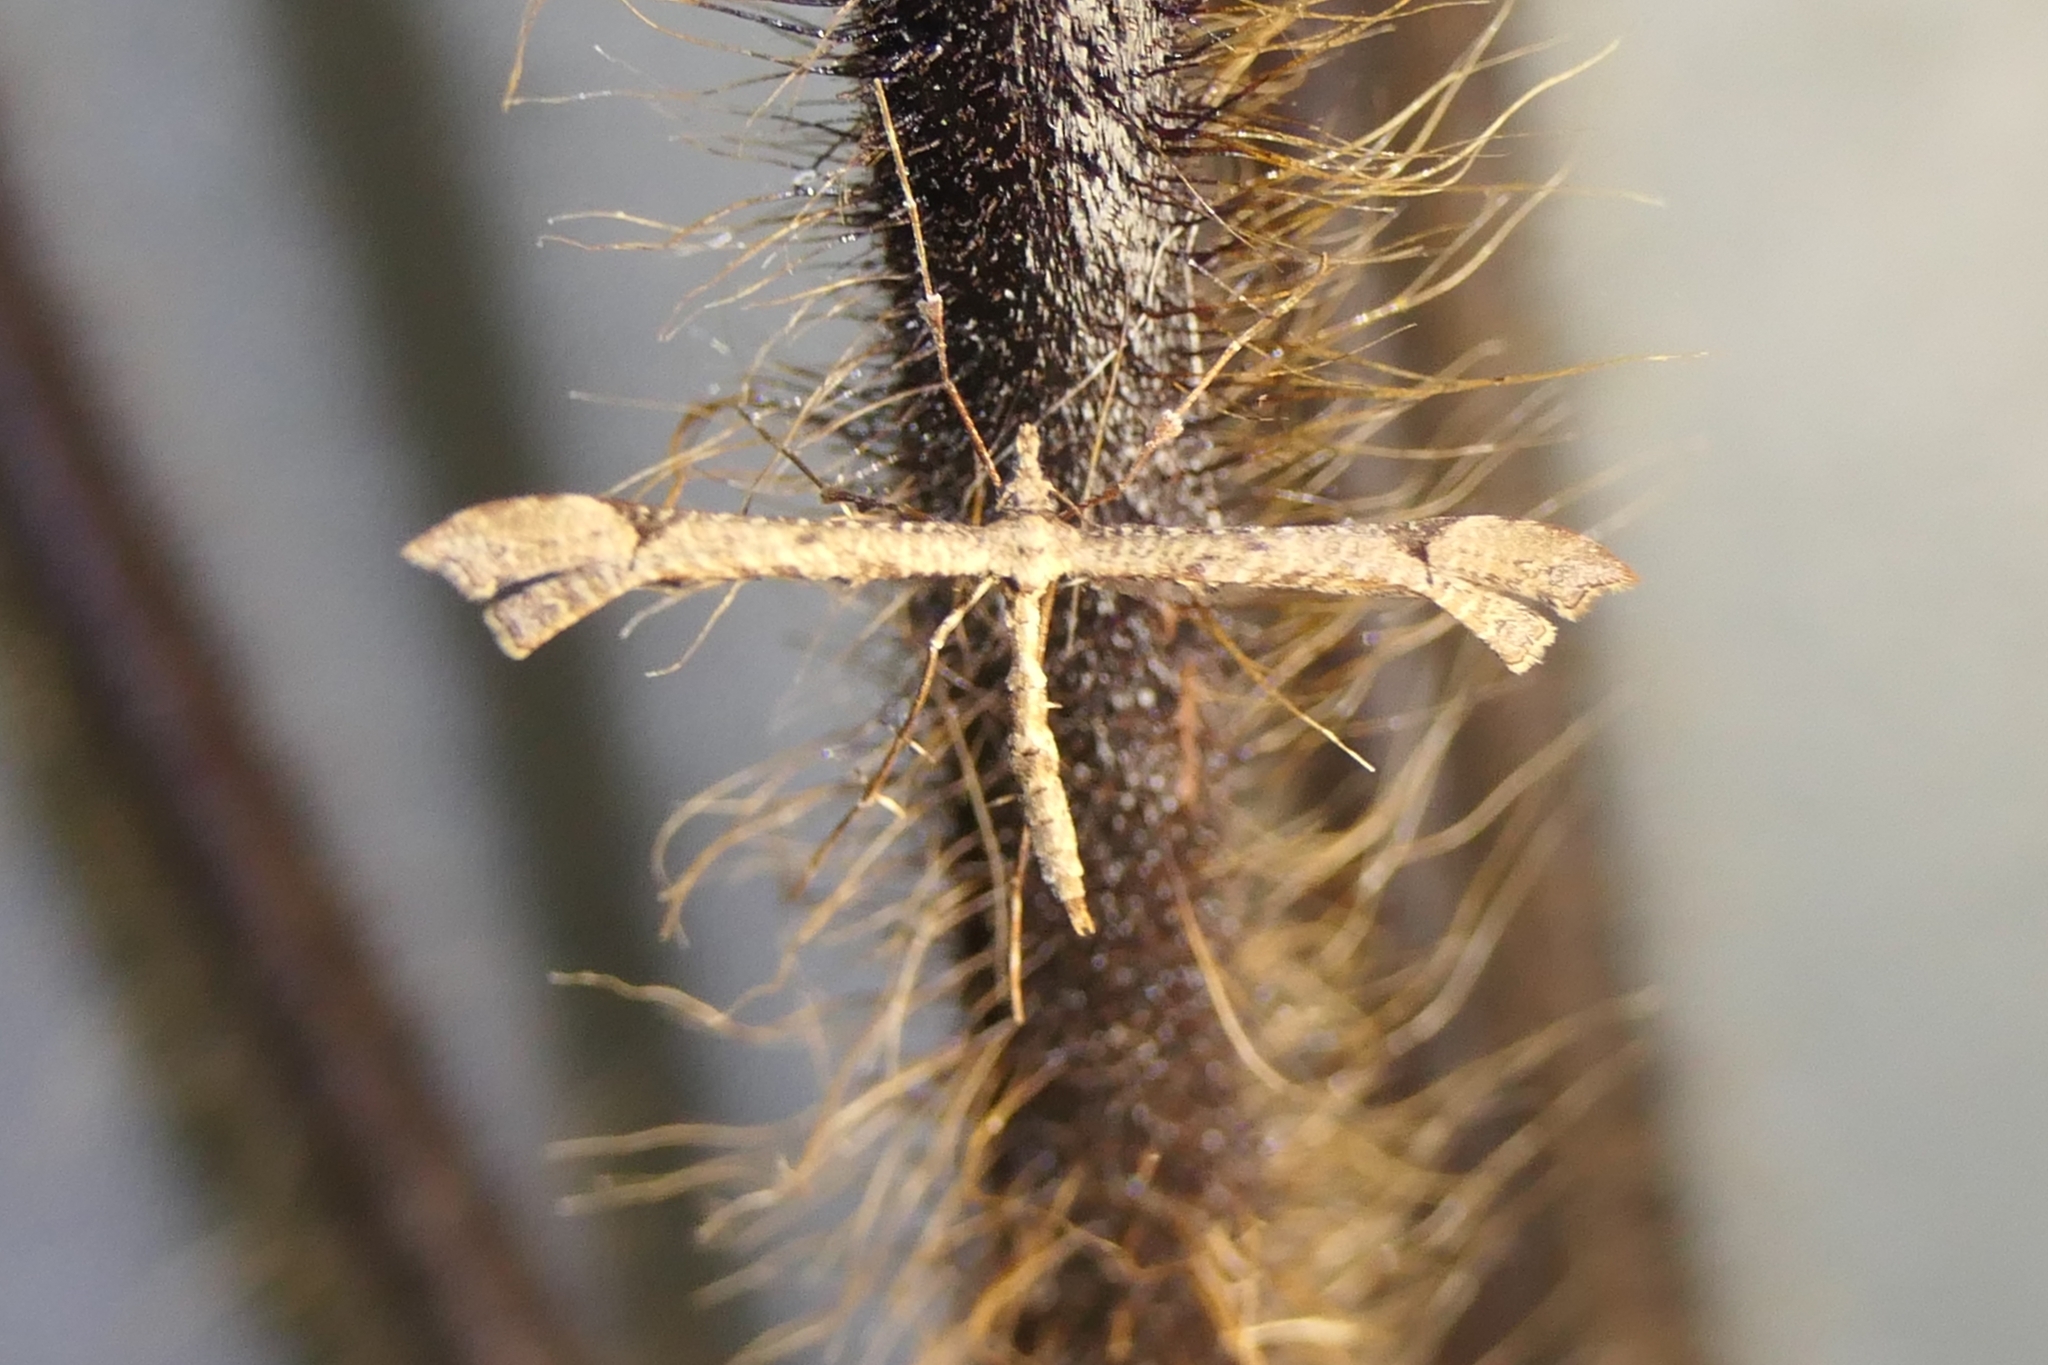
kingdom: Animalia
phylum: Arthropoda
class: Insecta
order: Lepidoptera
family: Pterophoridae
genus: Amblyptilia
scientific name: Amblyptilia repletalis
